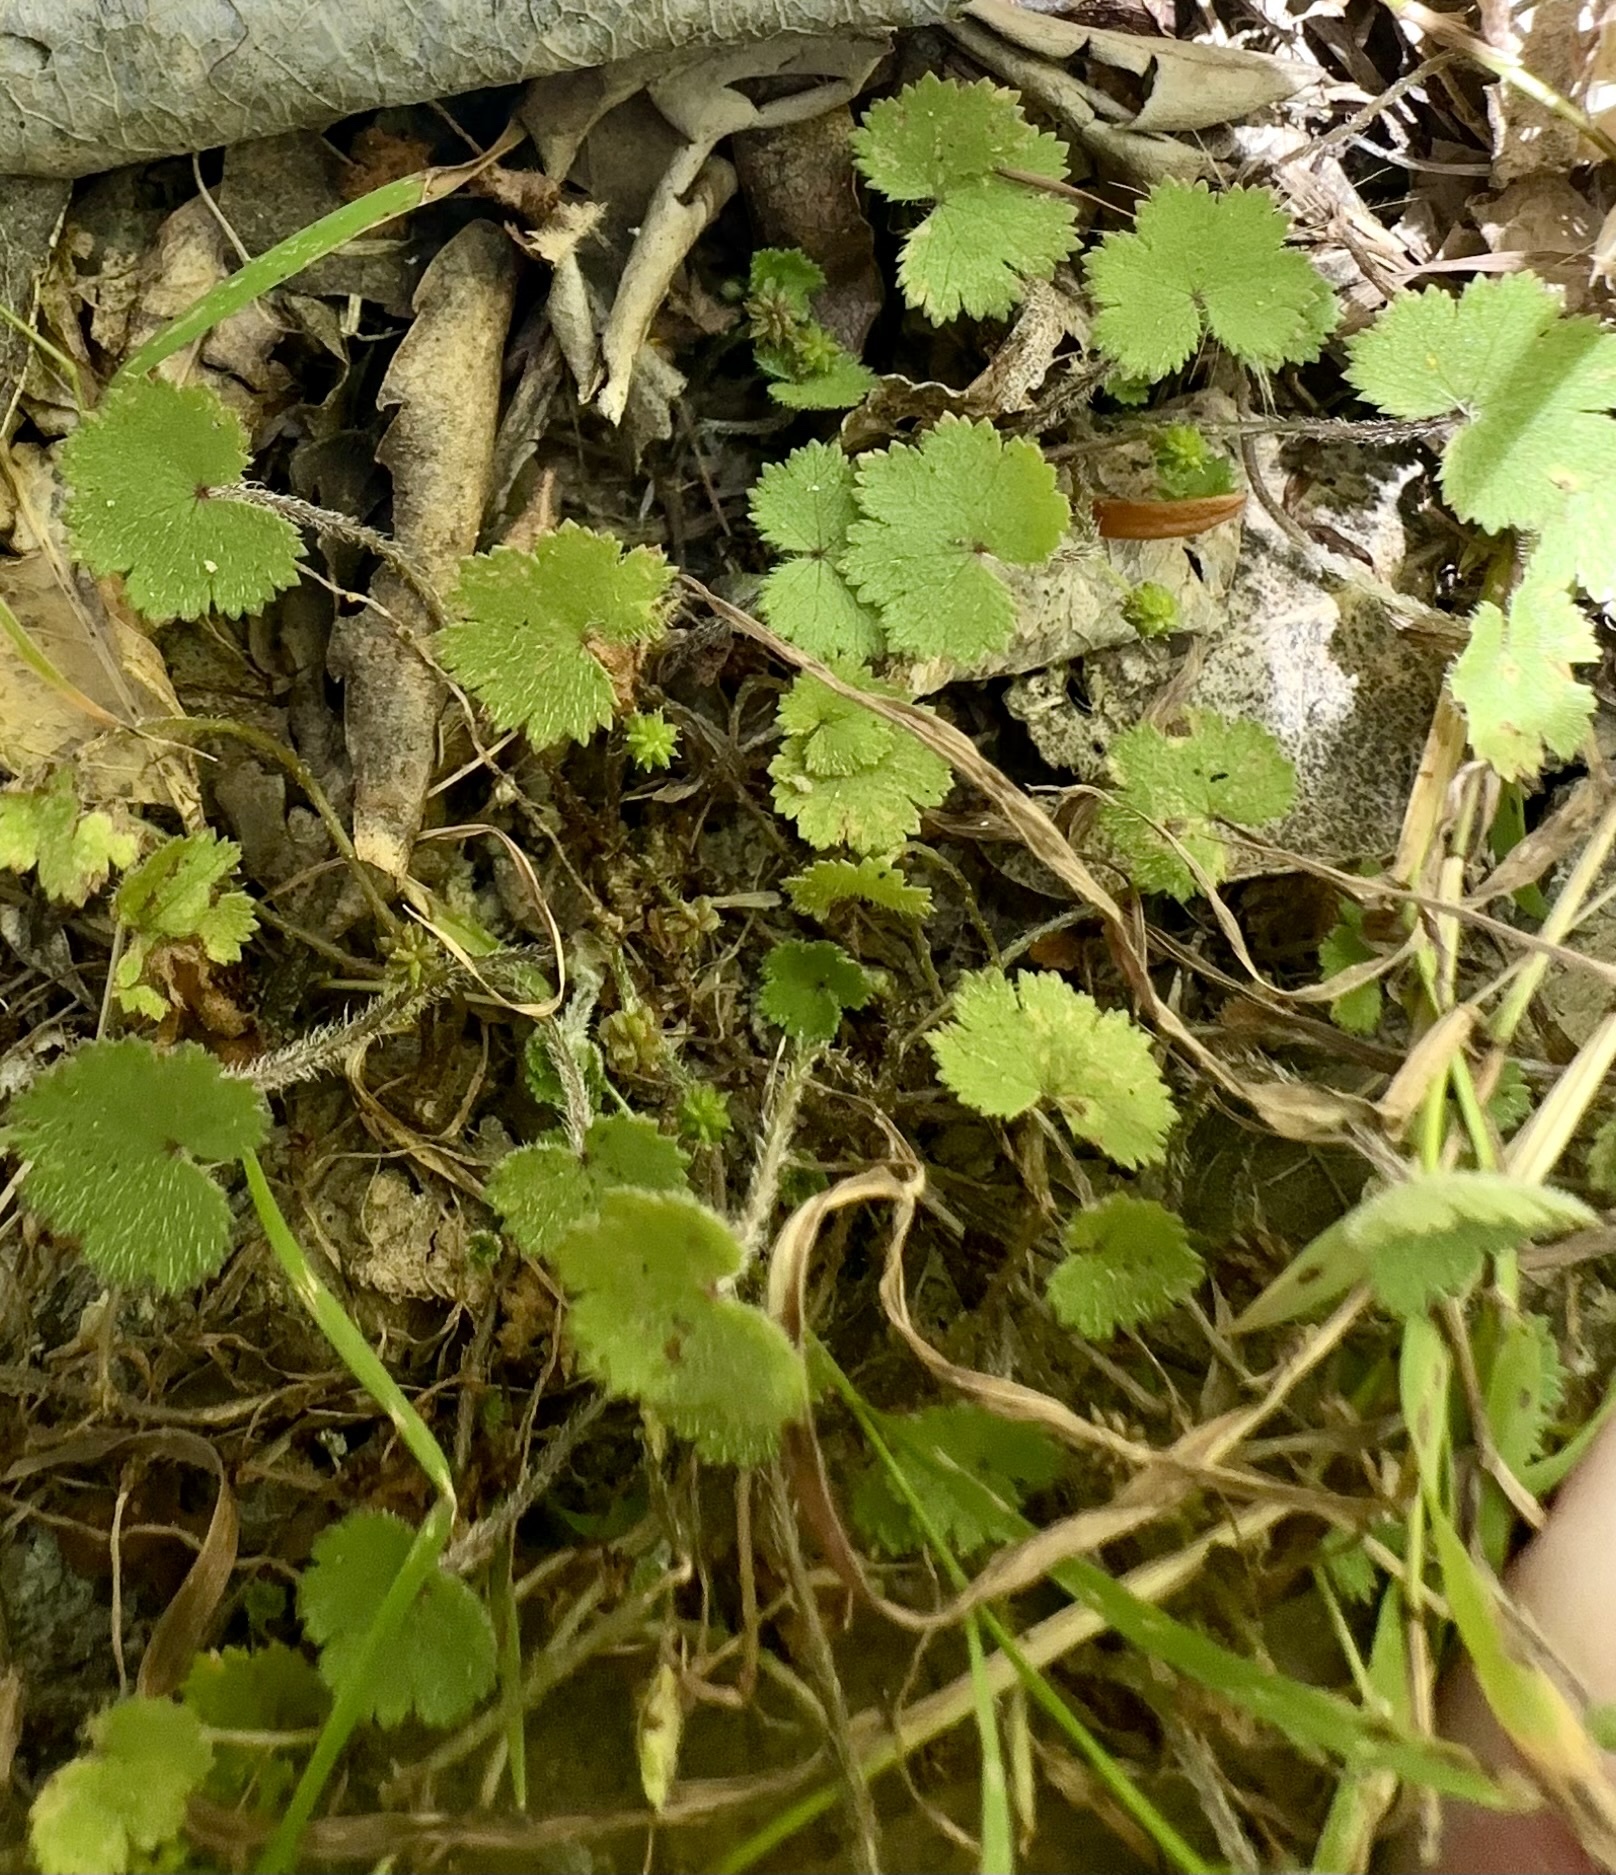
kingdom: Plantae
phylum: Tracheophyta
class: Magnoliopsida
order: Apiales
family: Araliaceae
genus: Hydrocotyle
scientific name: Hydrocotyle moschata
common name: Hairy pennywort
